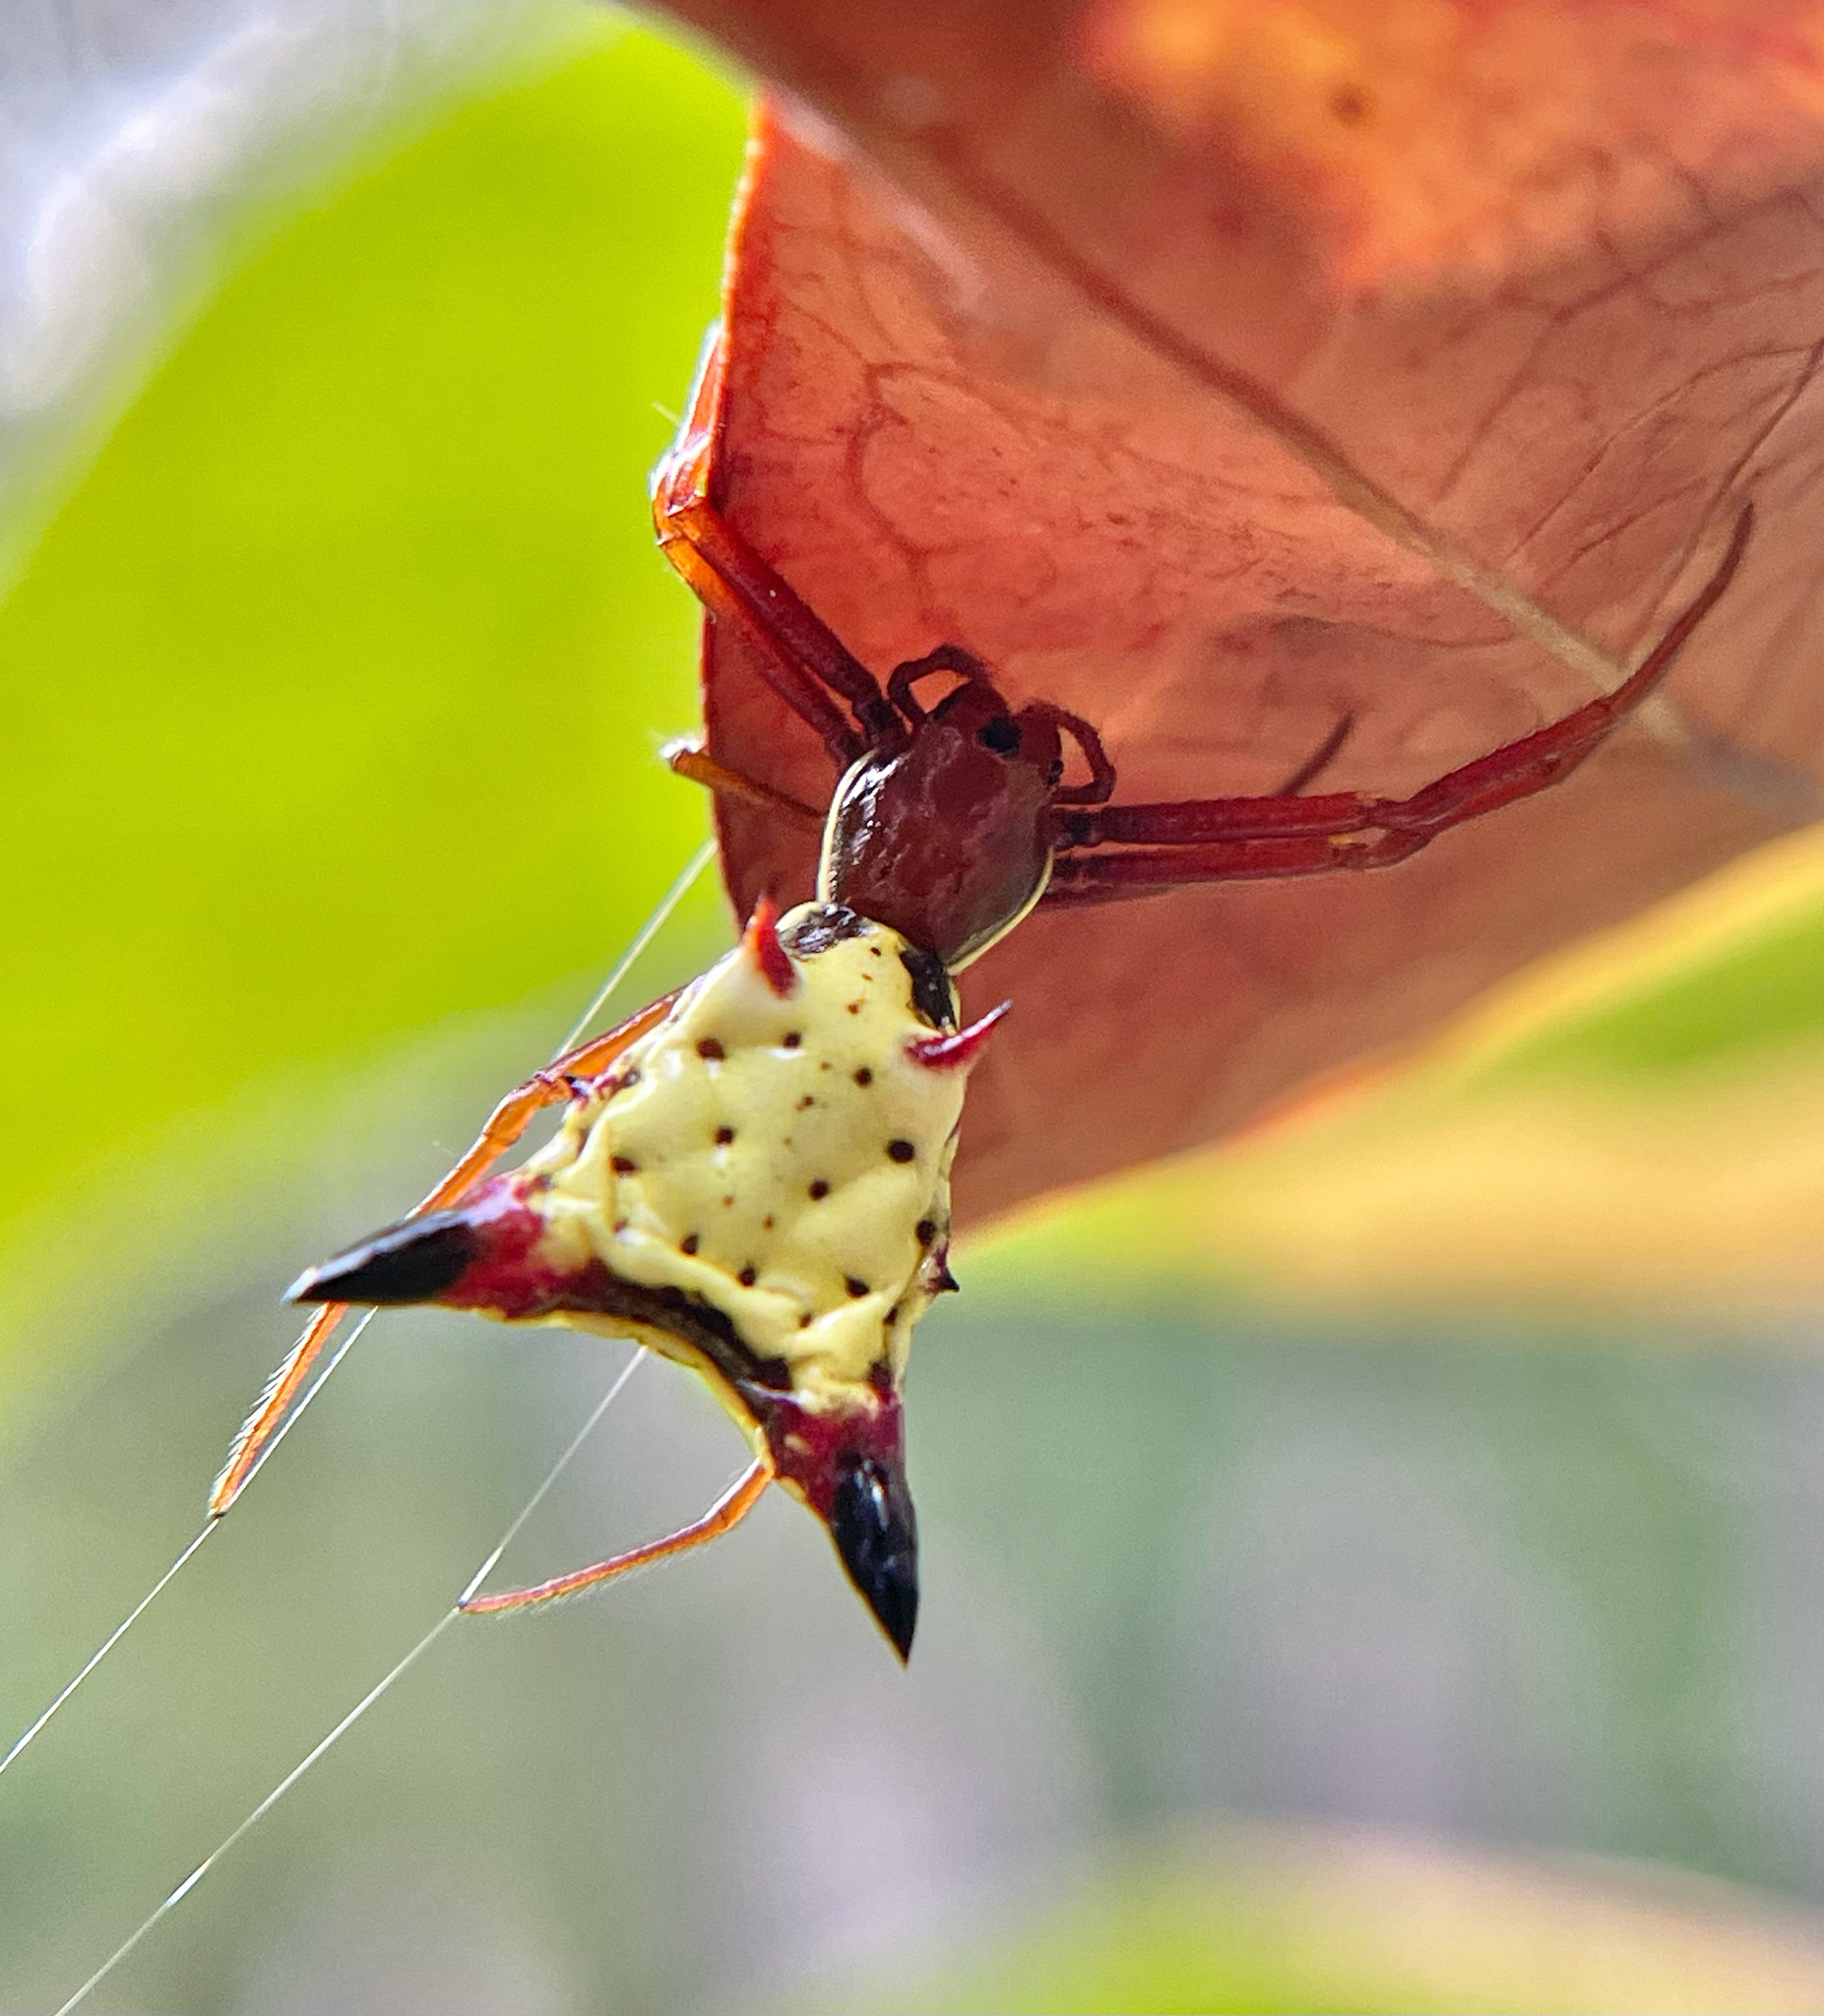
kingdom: Animalia
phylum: Arthropoda
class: Arachnida
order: Araneae
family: Araneidae
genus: Micrathena
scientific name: Micrathena sagittata
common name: Orb weavers
